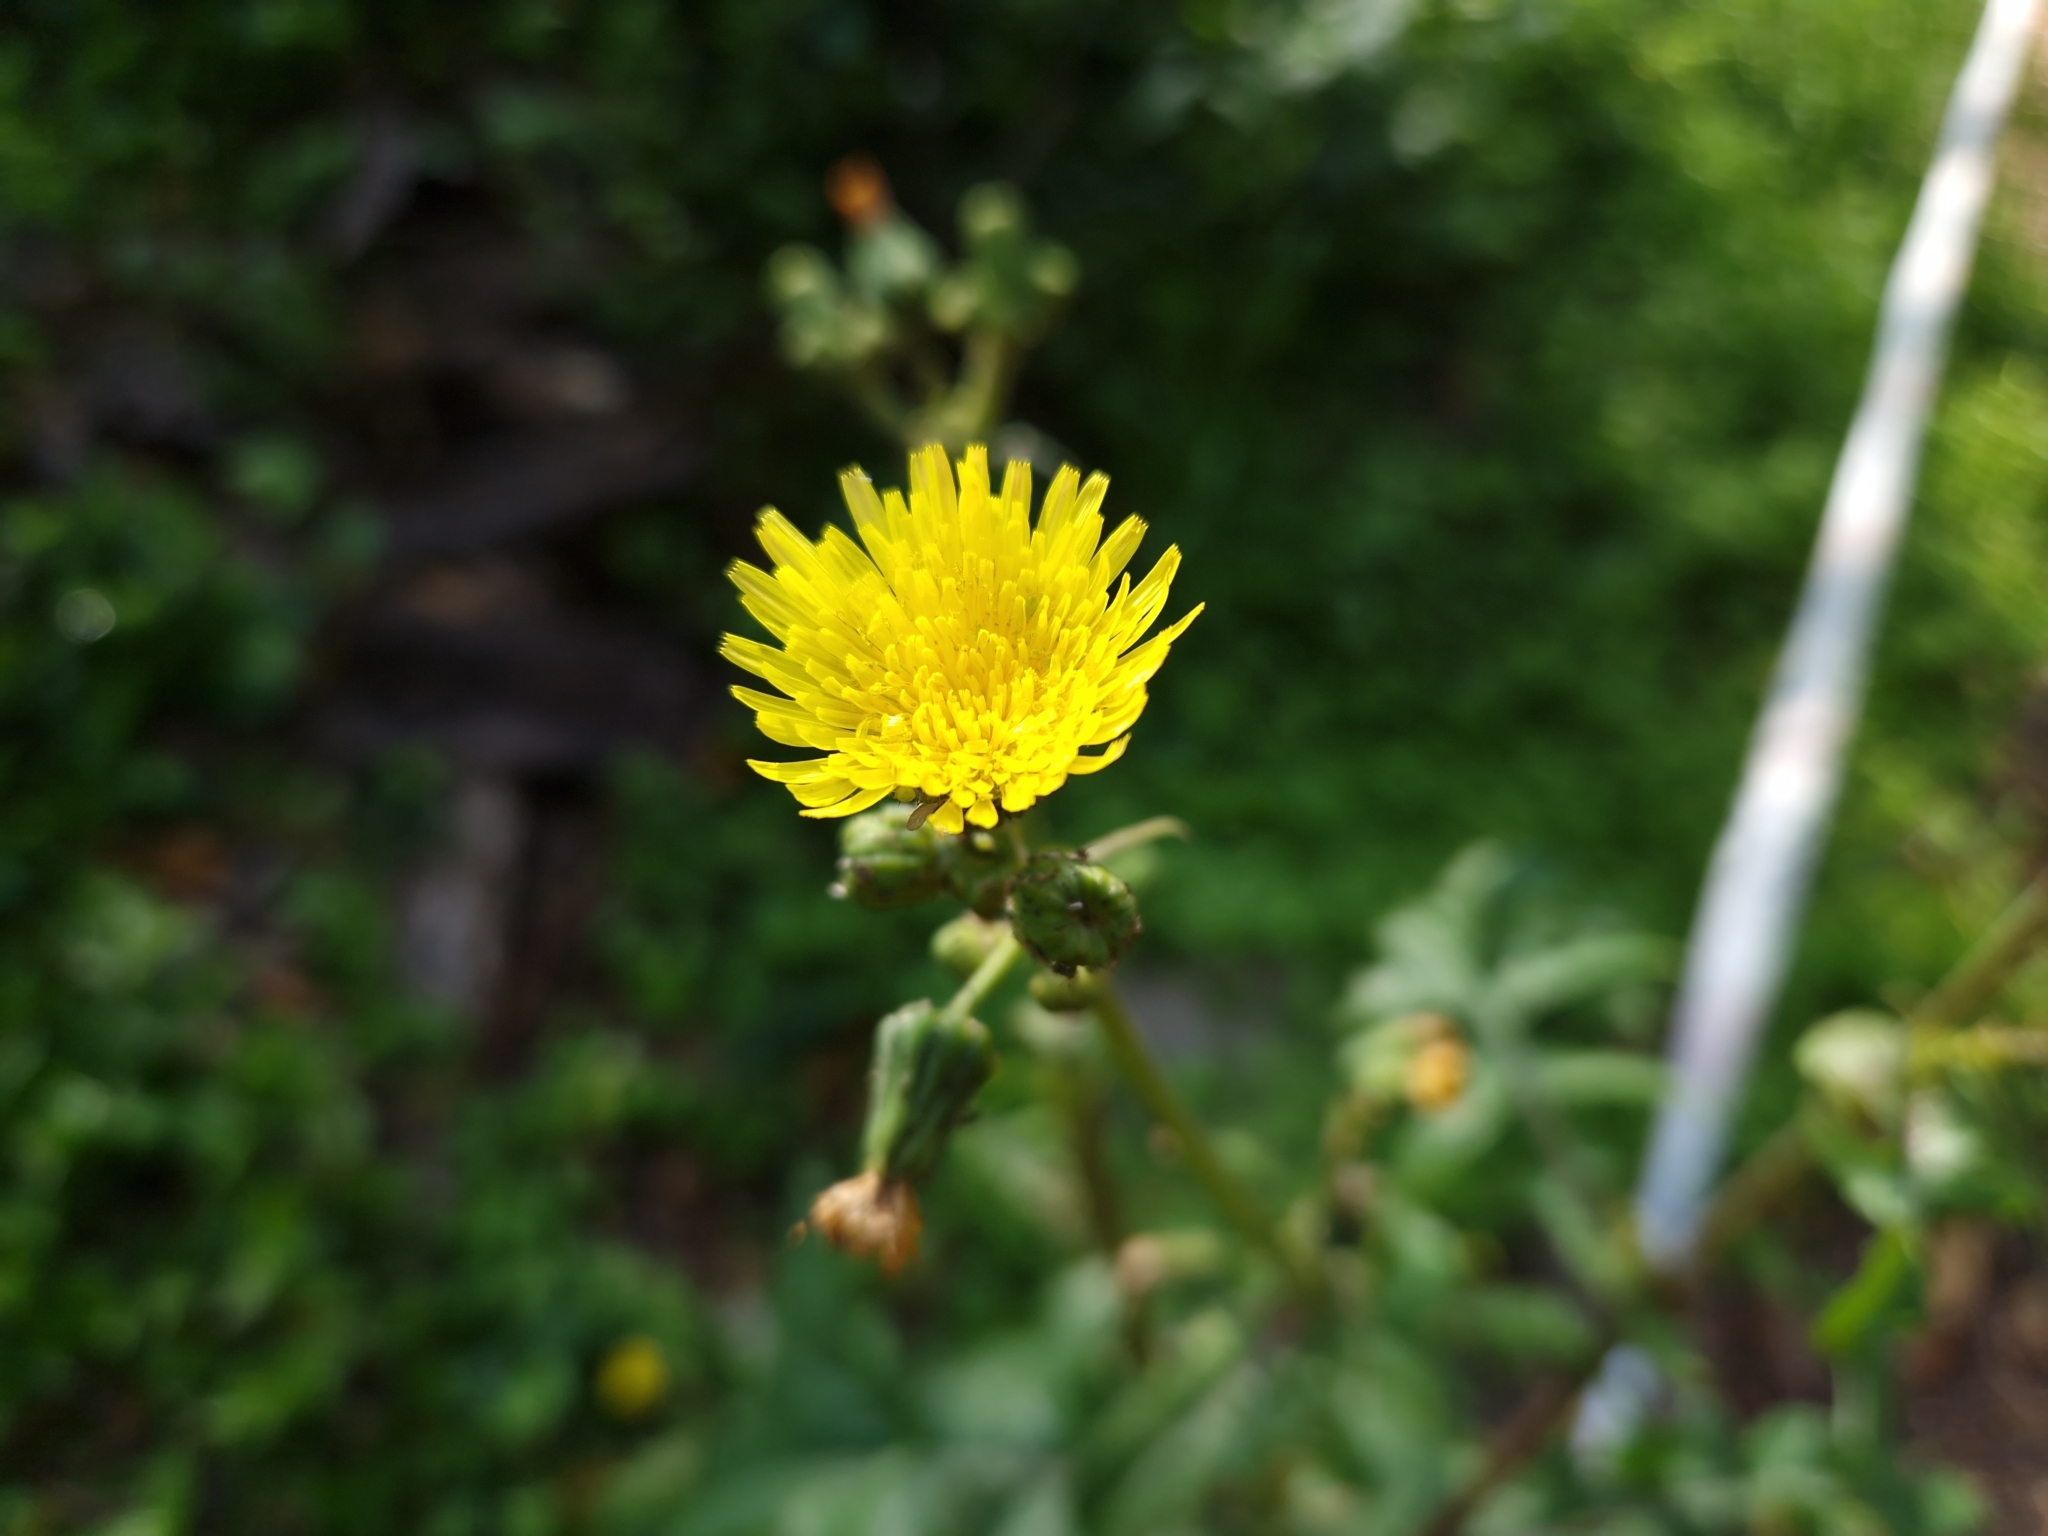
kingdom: Plantae
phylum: Tracheophyta
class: Magnoliopsida
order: Asterales
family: Asteraceae
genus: Sonchus
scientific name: Sonchus oleraceus
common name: Common sowthistle
